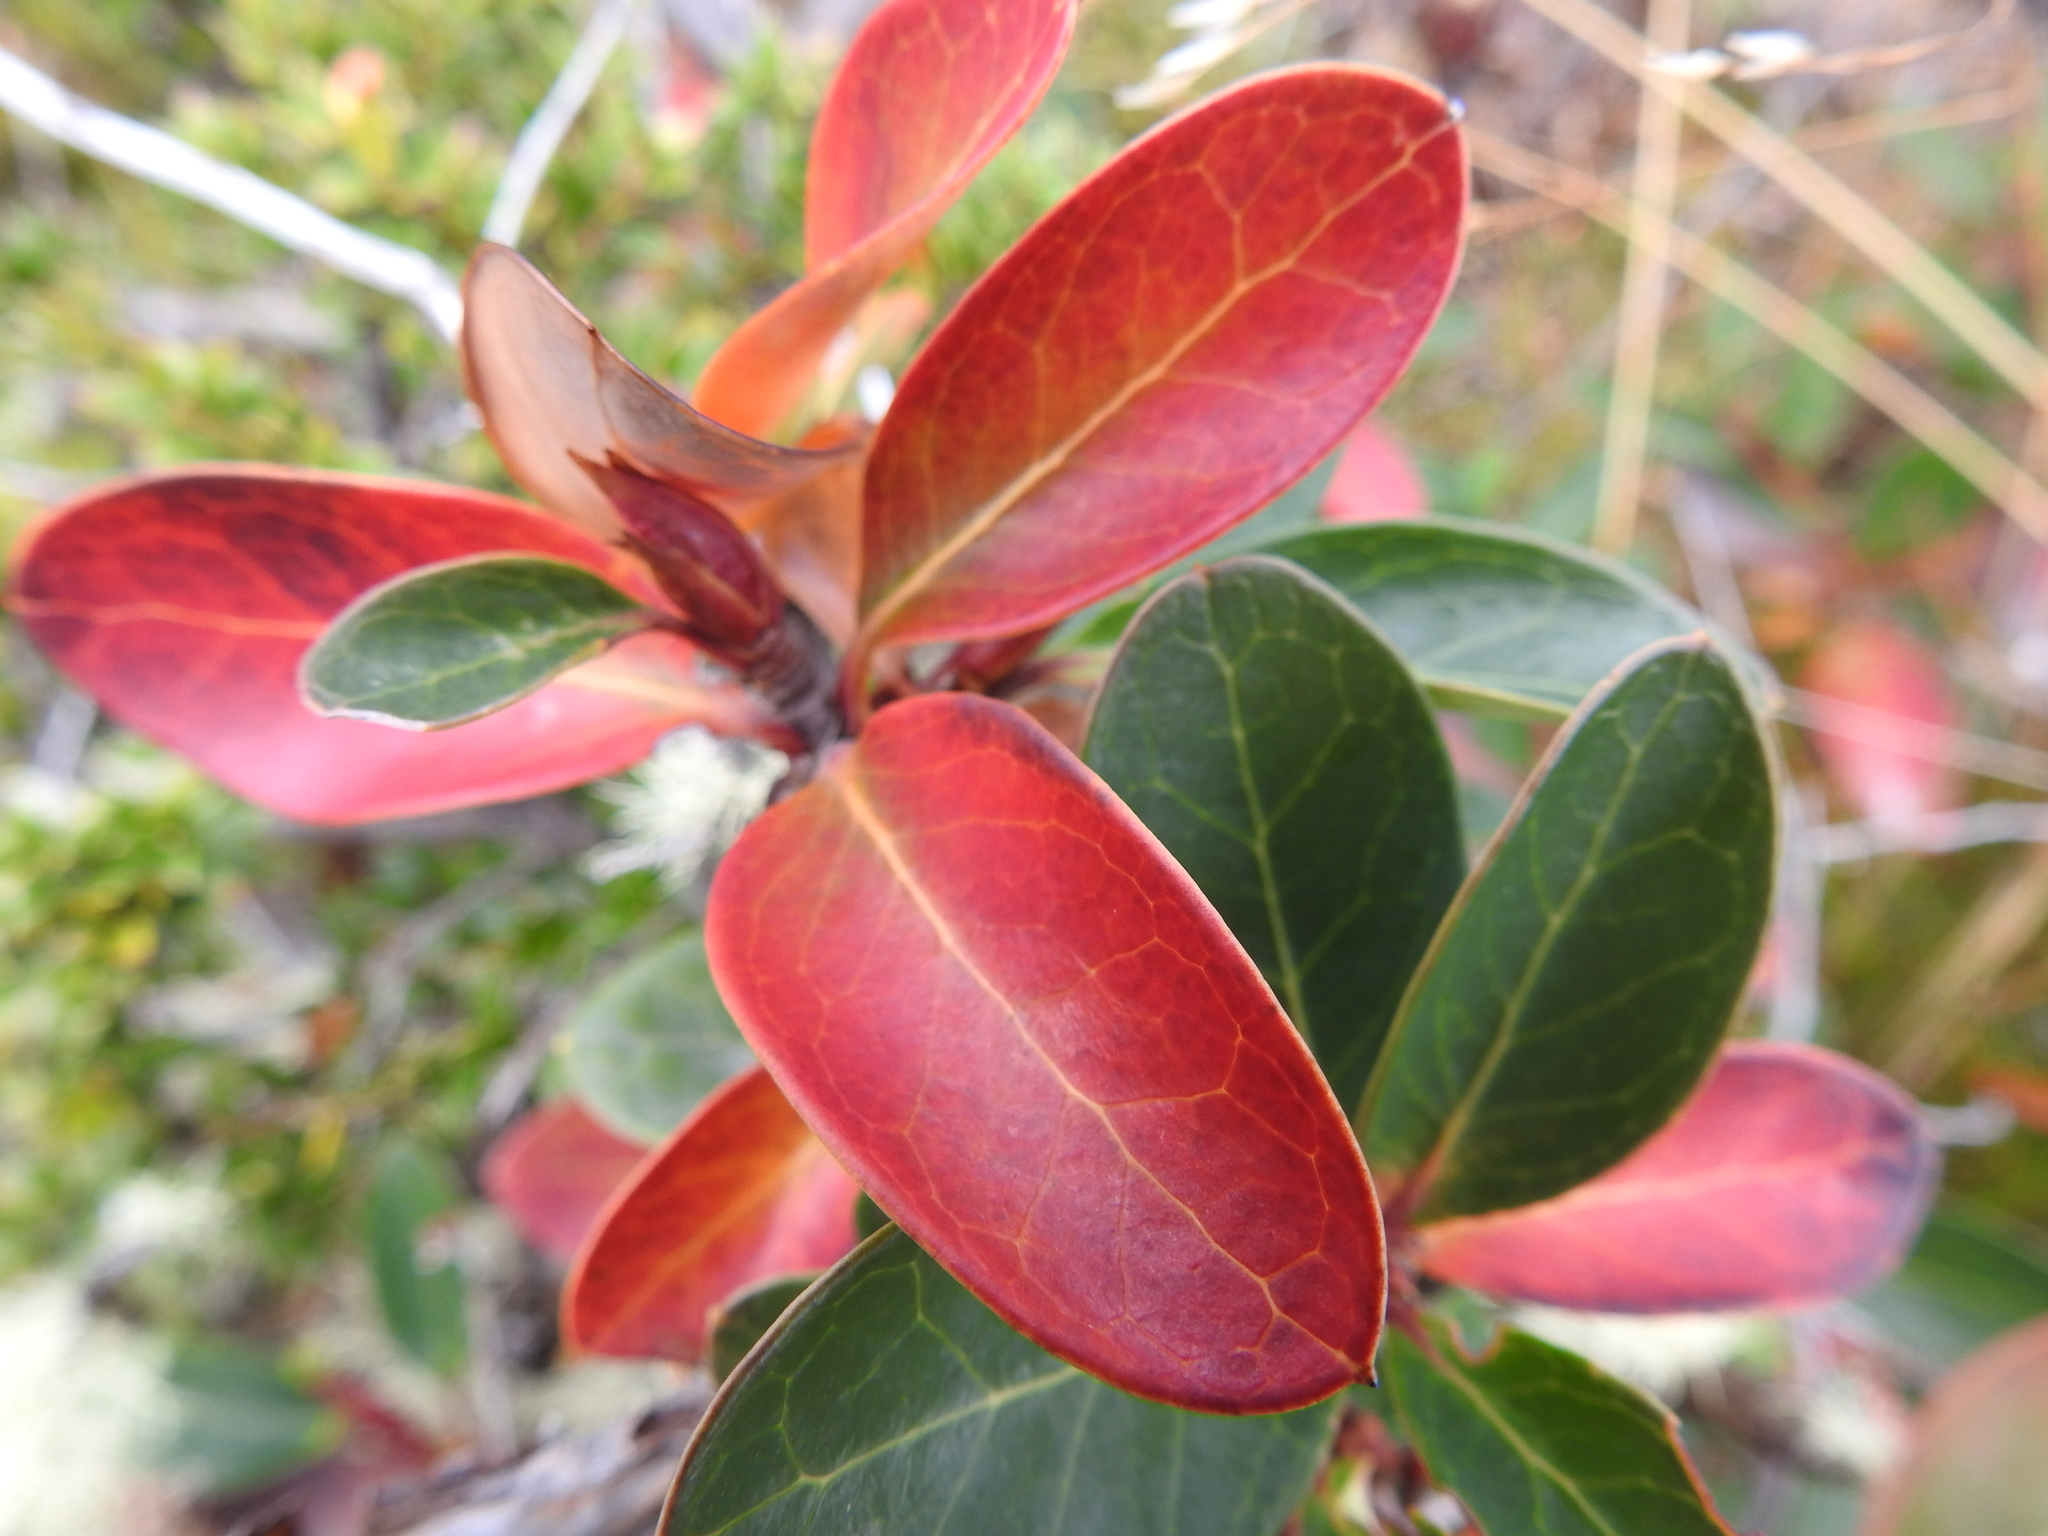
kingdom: Plantae
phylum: Tracheophyta
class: Magnoliopsida
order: Proteales
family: Proteaceae
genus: Embothrium
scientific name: Embothrium coccineum
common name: Chilean firebush
